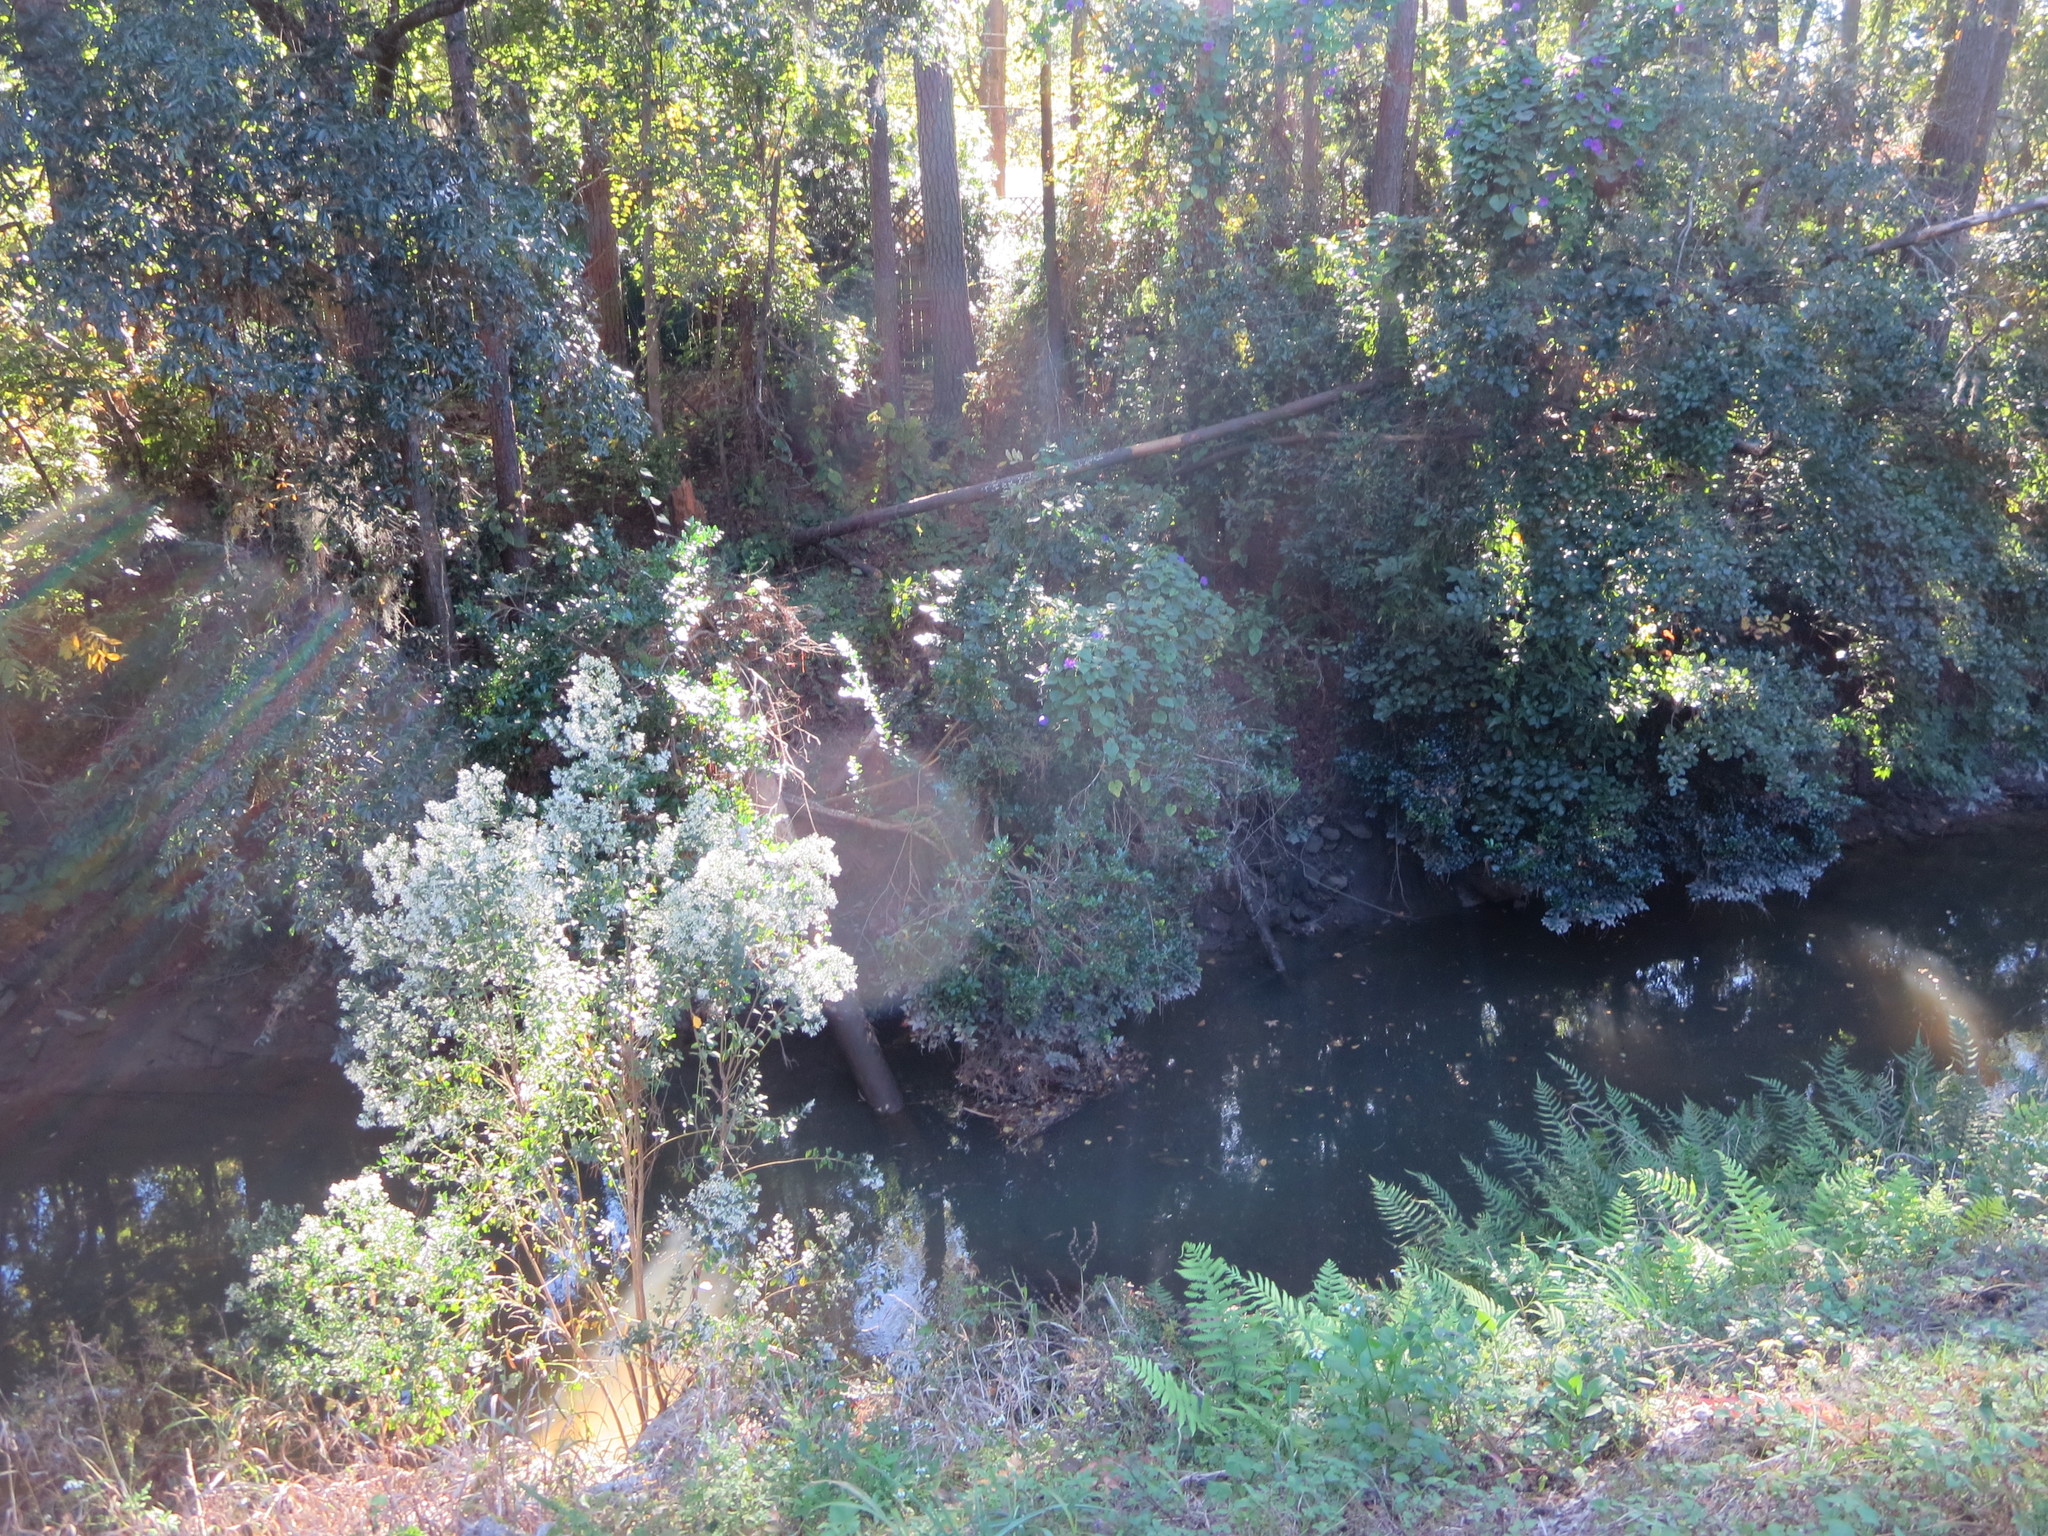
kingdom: Plantae
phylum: Tracheophyta
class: Magnoliopsida
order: Solanales
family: Convolvulaceae
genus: Ipomoea
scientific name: Ipomoea indica
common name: Blue dawnflower
